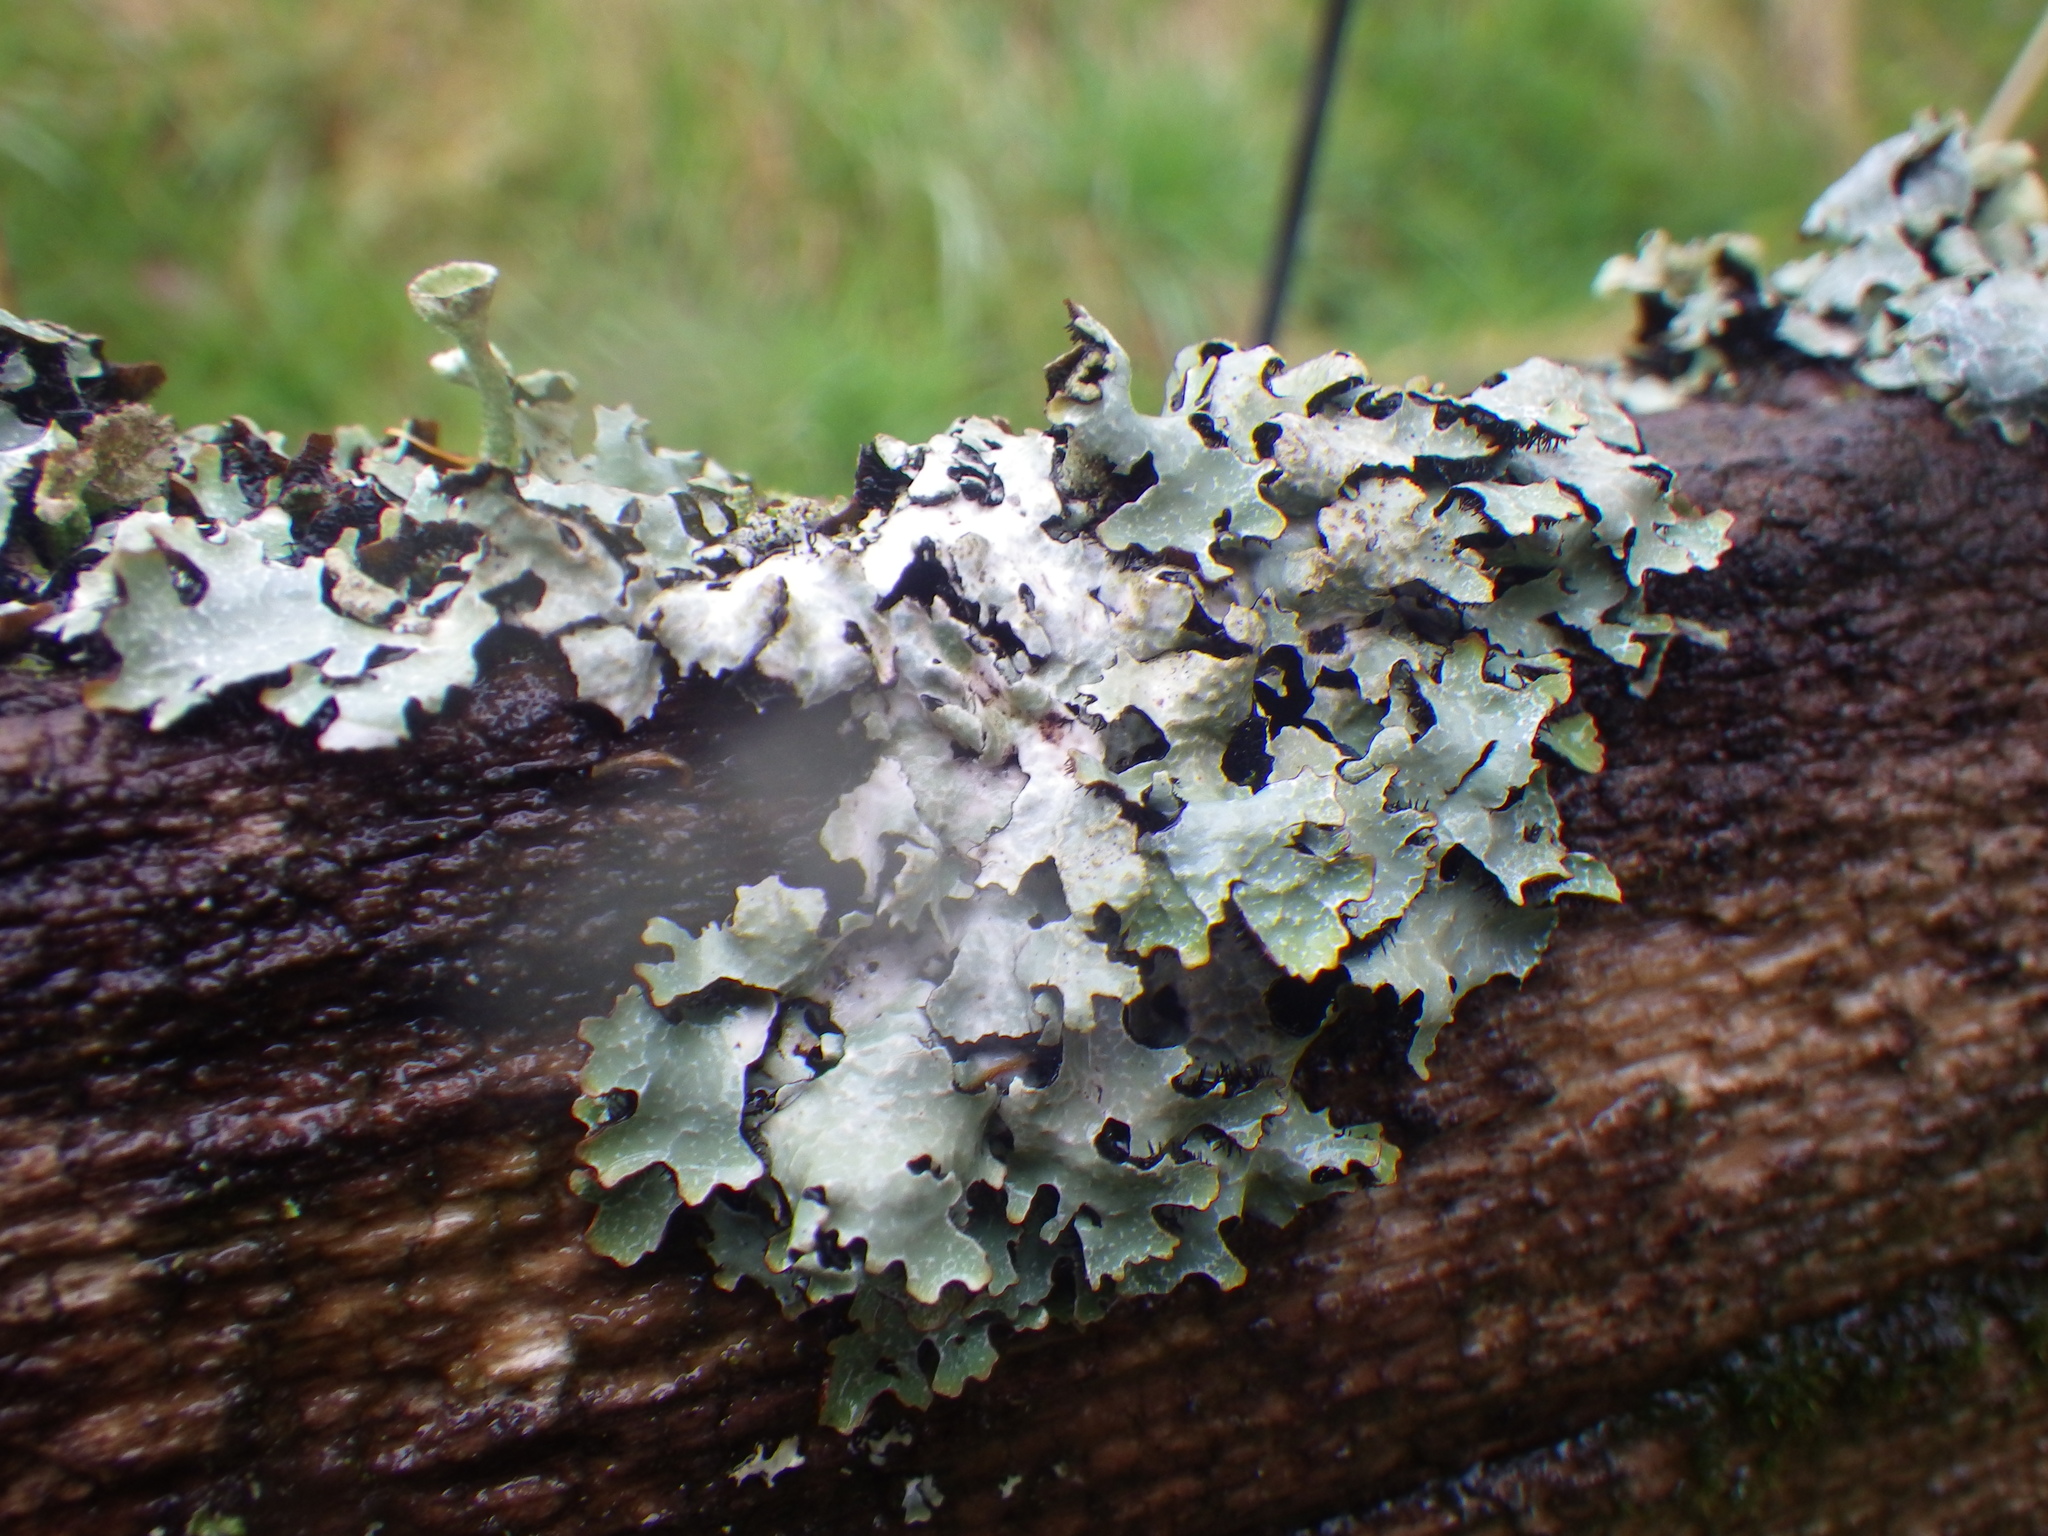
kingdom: Fungi
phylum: Ascomycota
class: Lecanoromycetes
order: Lecanorales
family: Parmeliaceae
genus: Parmelia
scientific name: Parmelia sulcata
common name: Netted shield lichen
